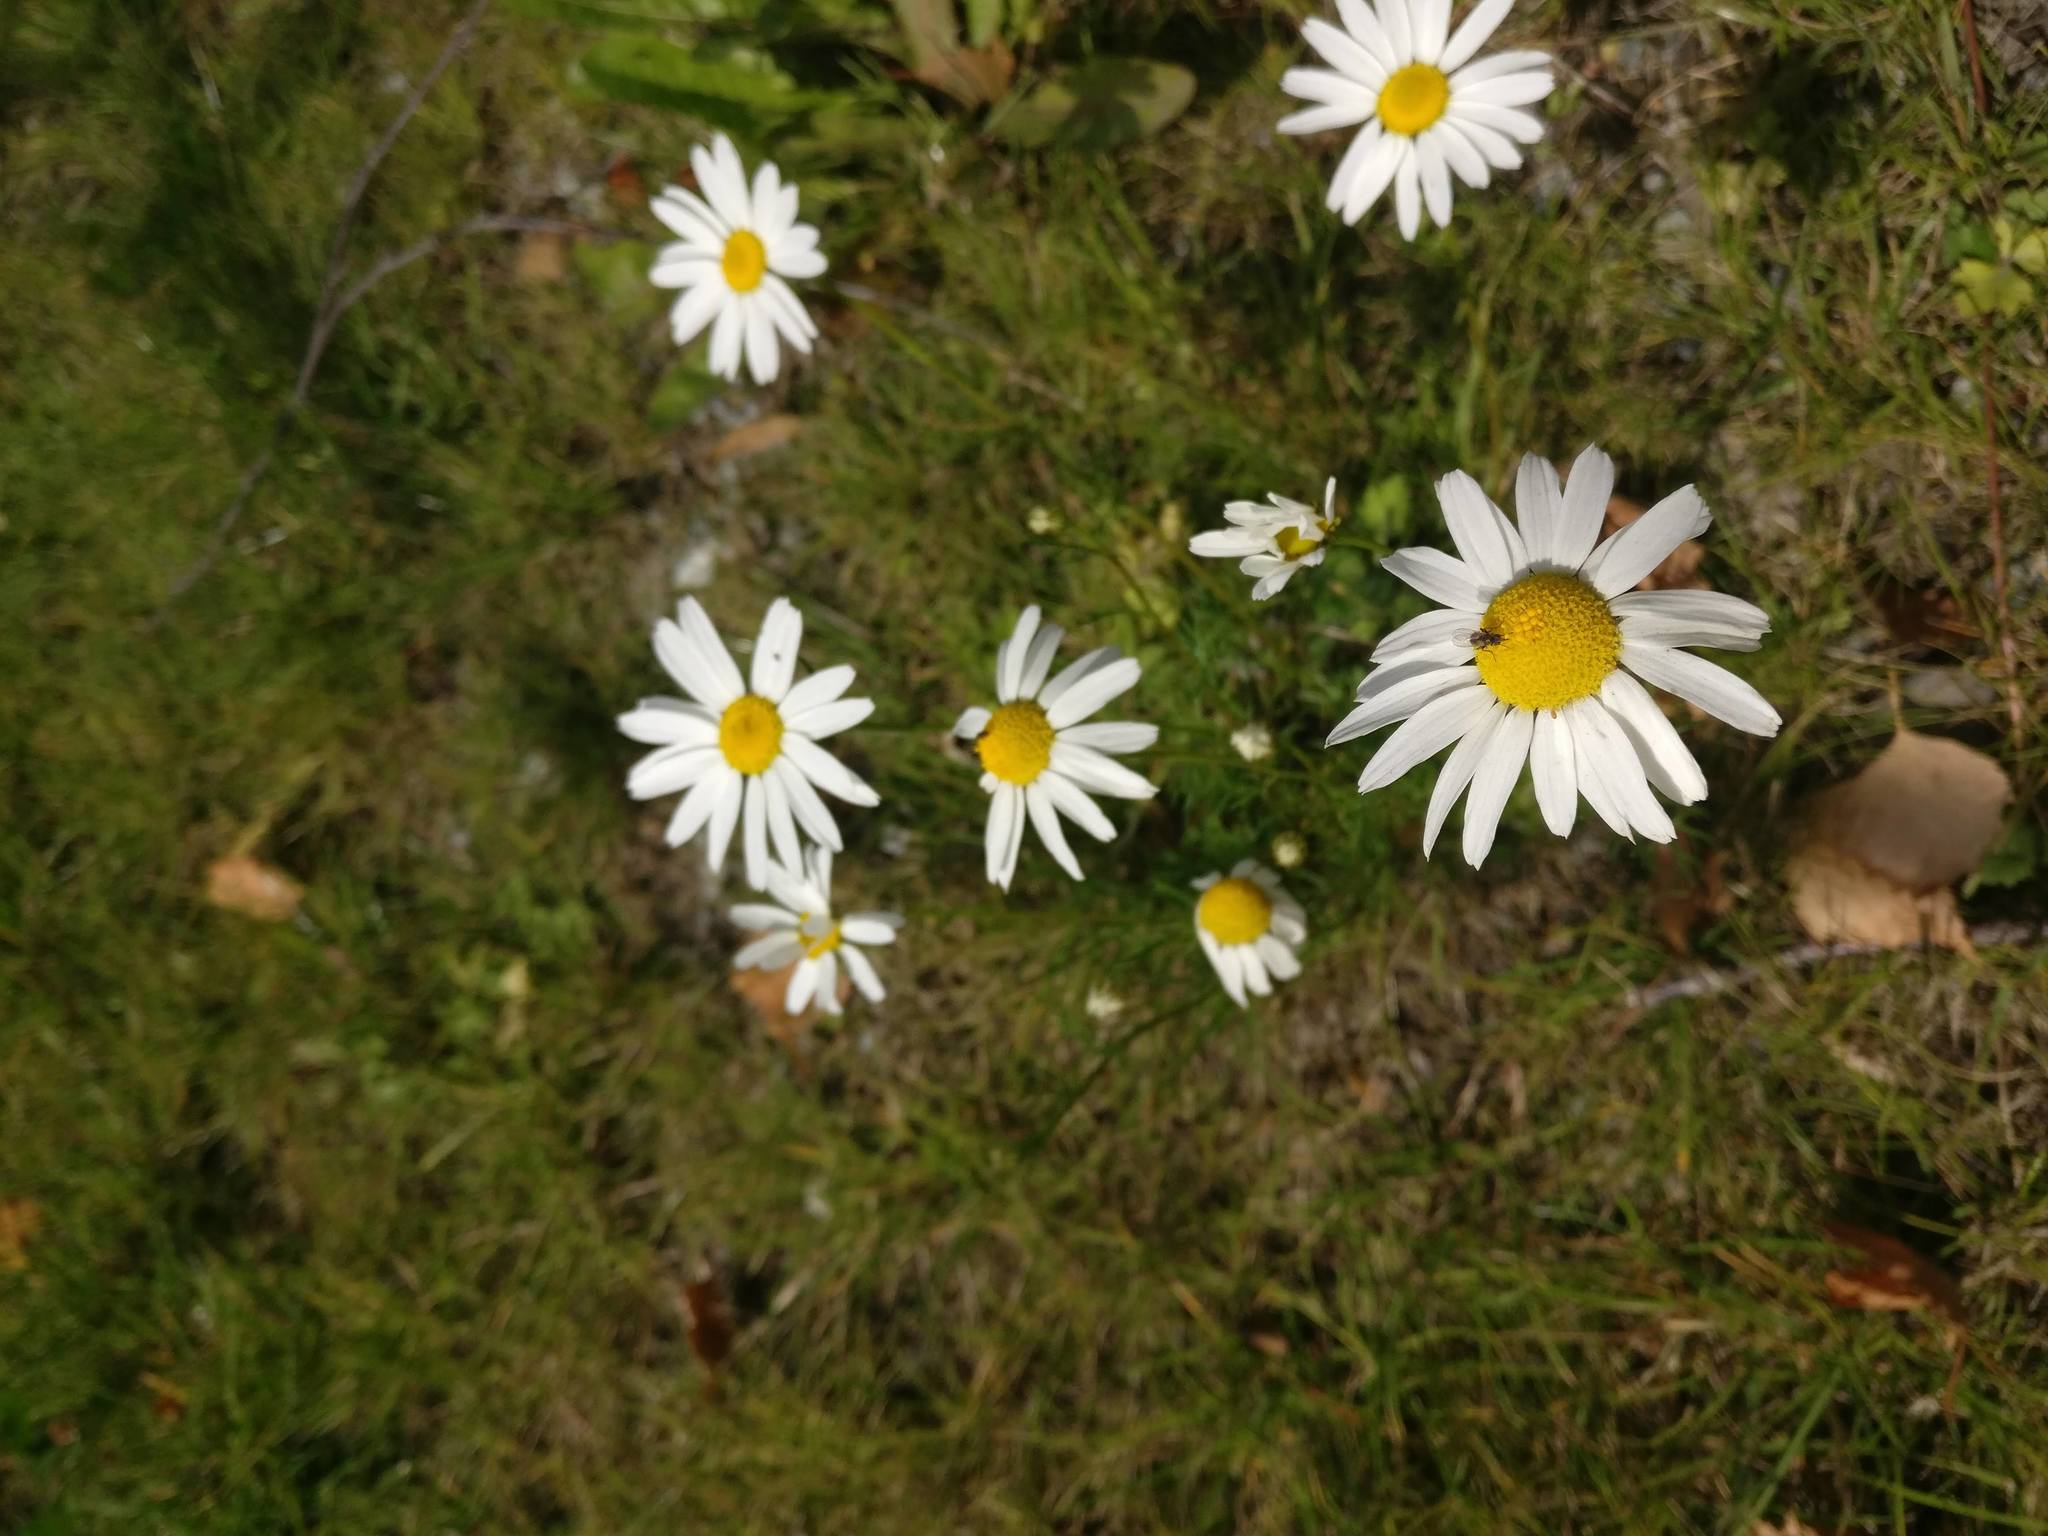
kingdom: Plantae
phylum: Tracheophyta
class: Magnoliopsida
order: Asterales
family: Asteraceae
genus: Tripleurospermum
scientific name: Tripleurospermum inodorum
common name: Scentless mayweed
